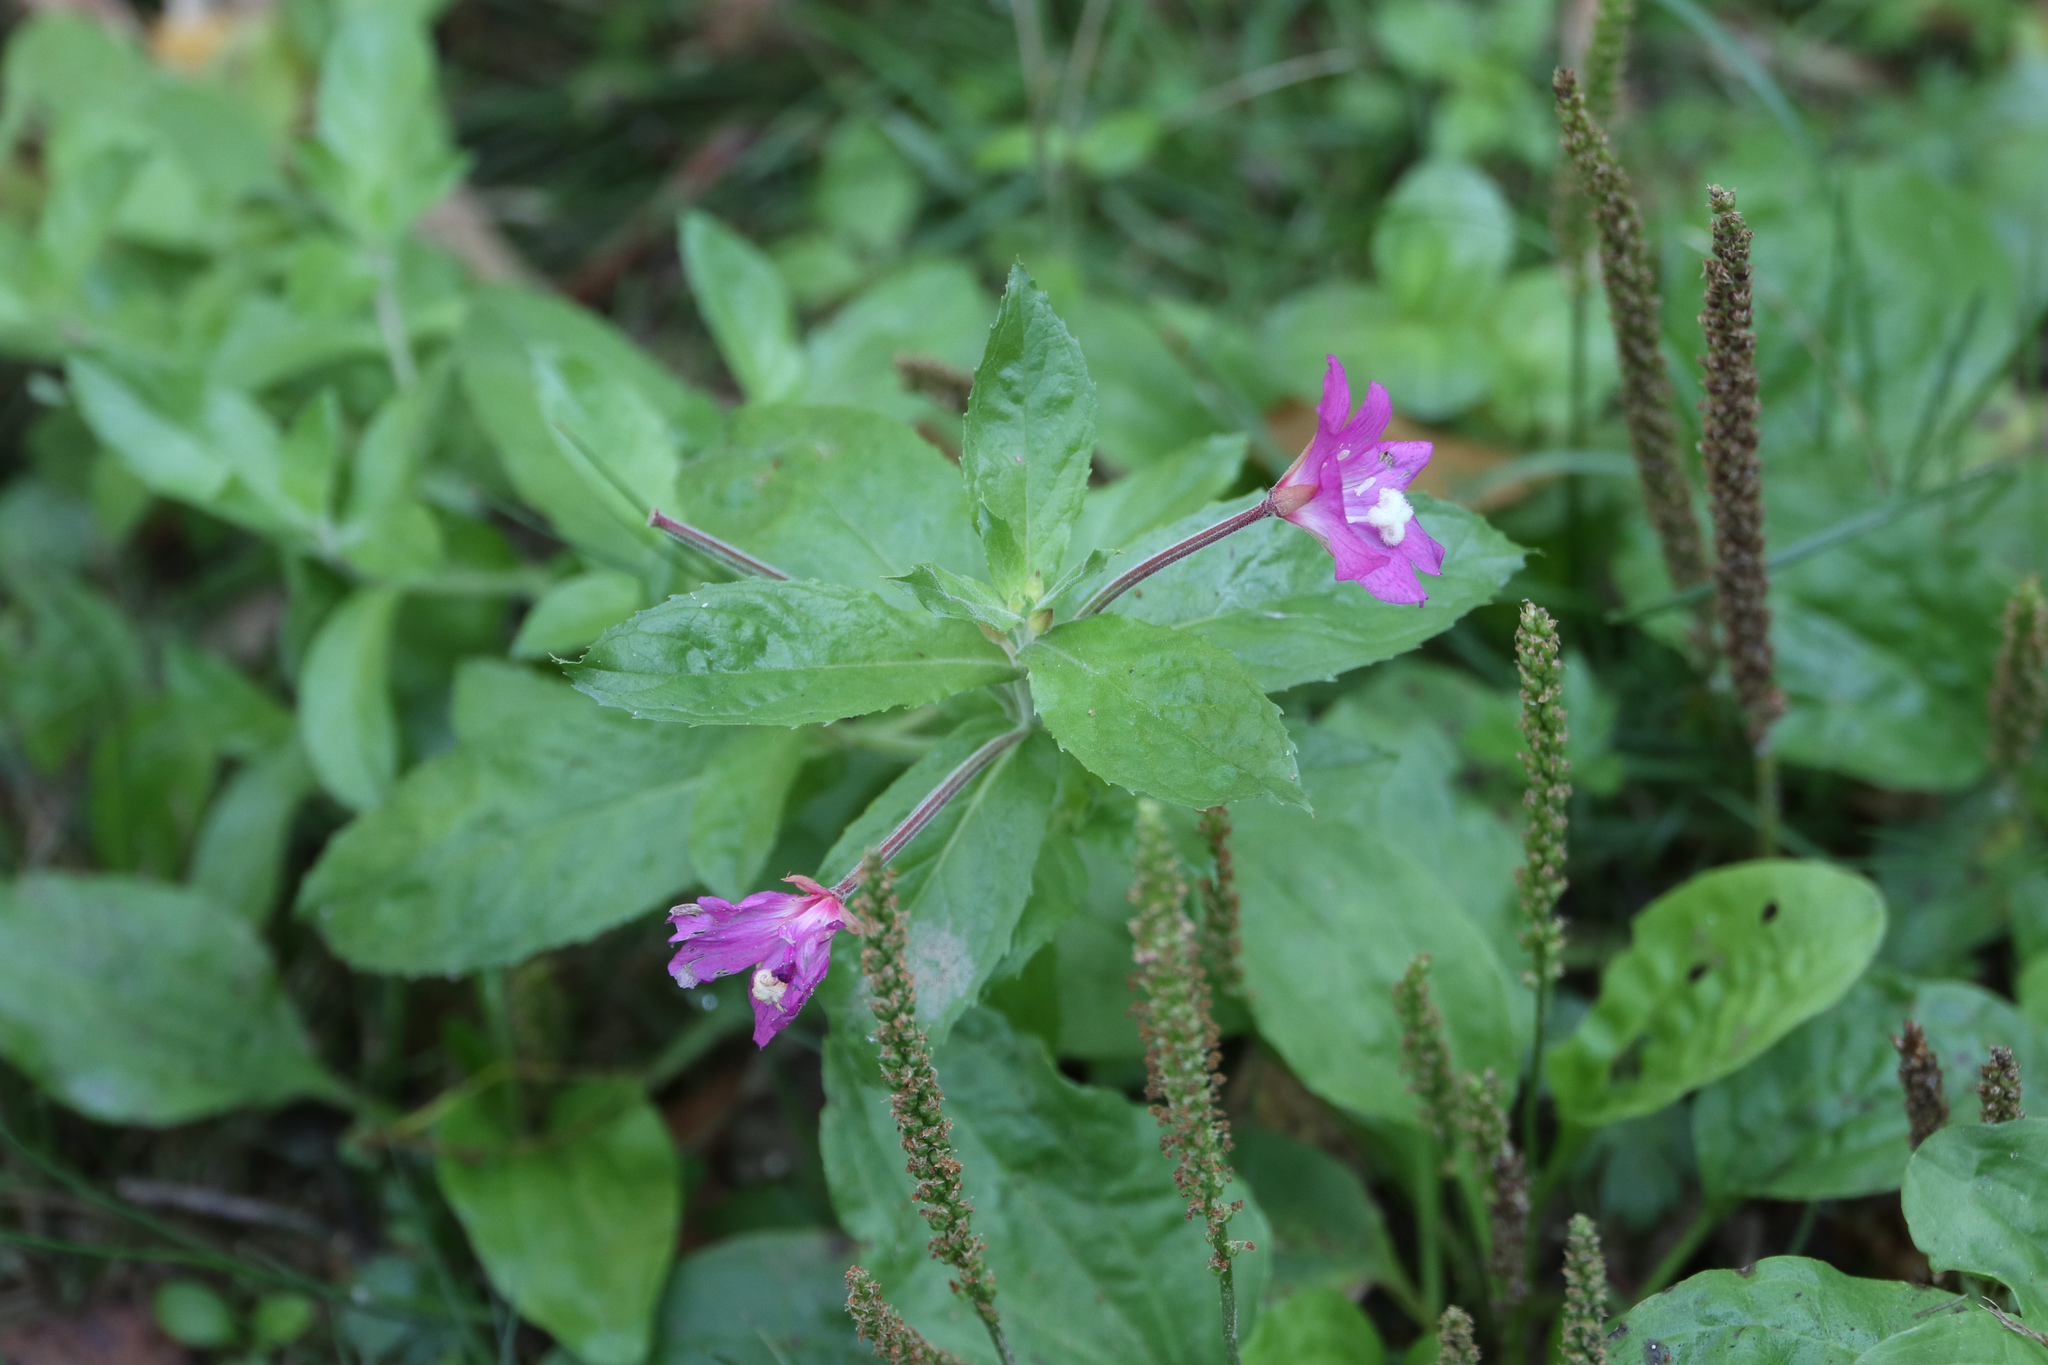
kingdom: Plantae
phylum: Tracheophyta
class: Magnoliopsida
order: Myrtales
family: Onagraceae
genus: Epilobium
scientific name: Epilobium hirsutum
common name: Great willowherb
